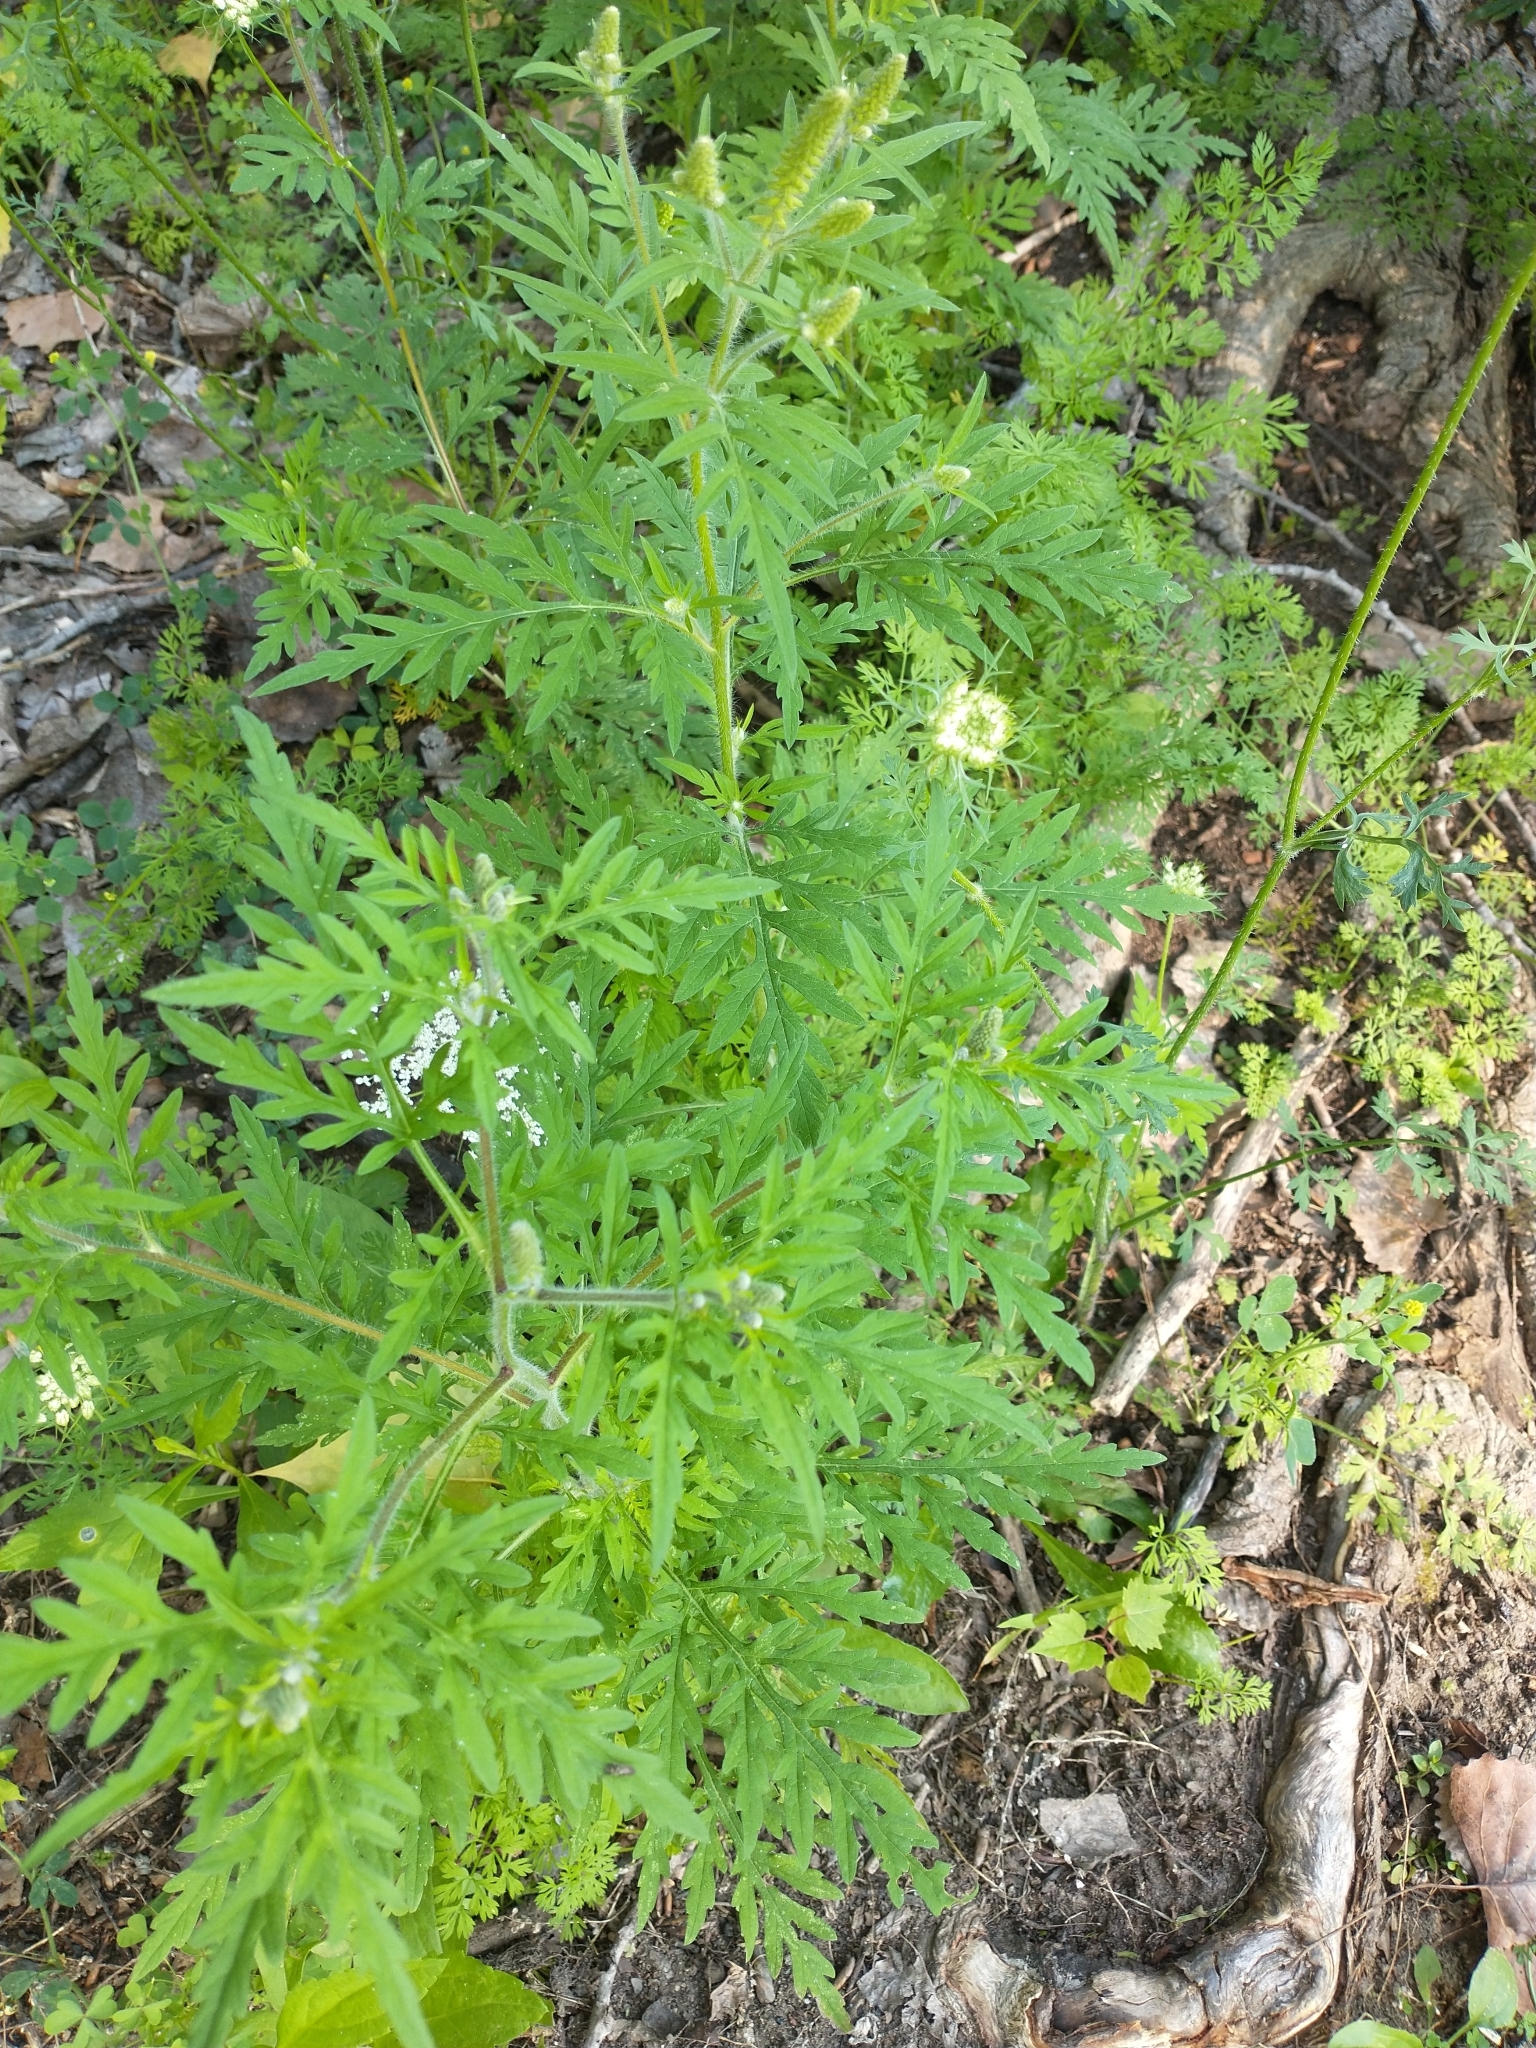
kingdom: Plantae
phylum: Tracheophyta
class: Magnoliopsida
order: Asterales
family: Asteraceae
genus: Ambrosia
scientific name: Ambrosia artemisiifolia
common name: Annual ragweed
